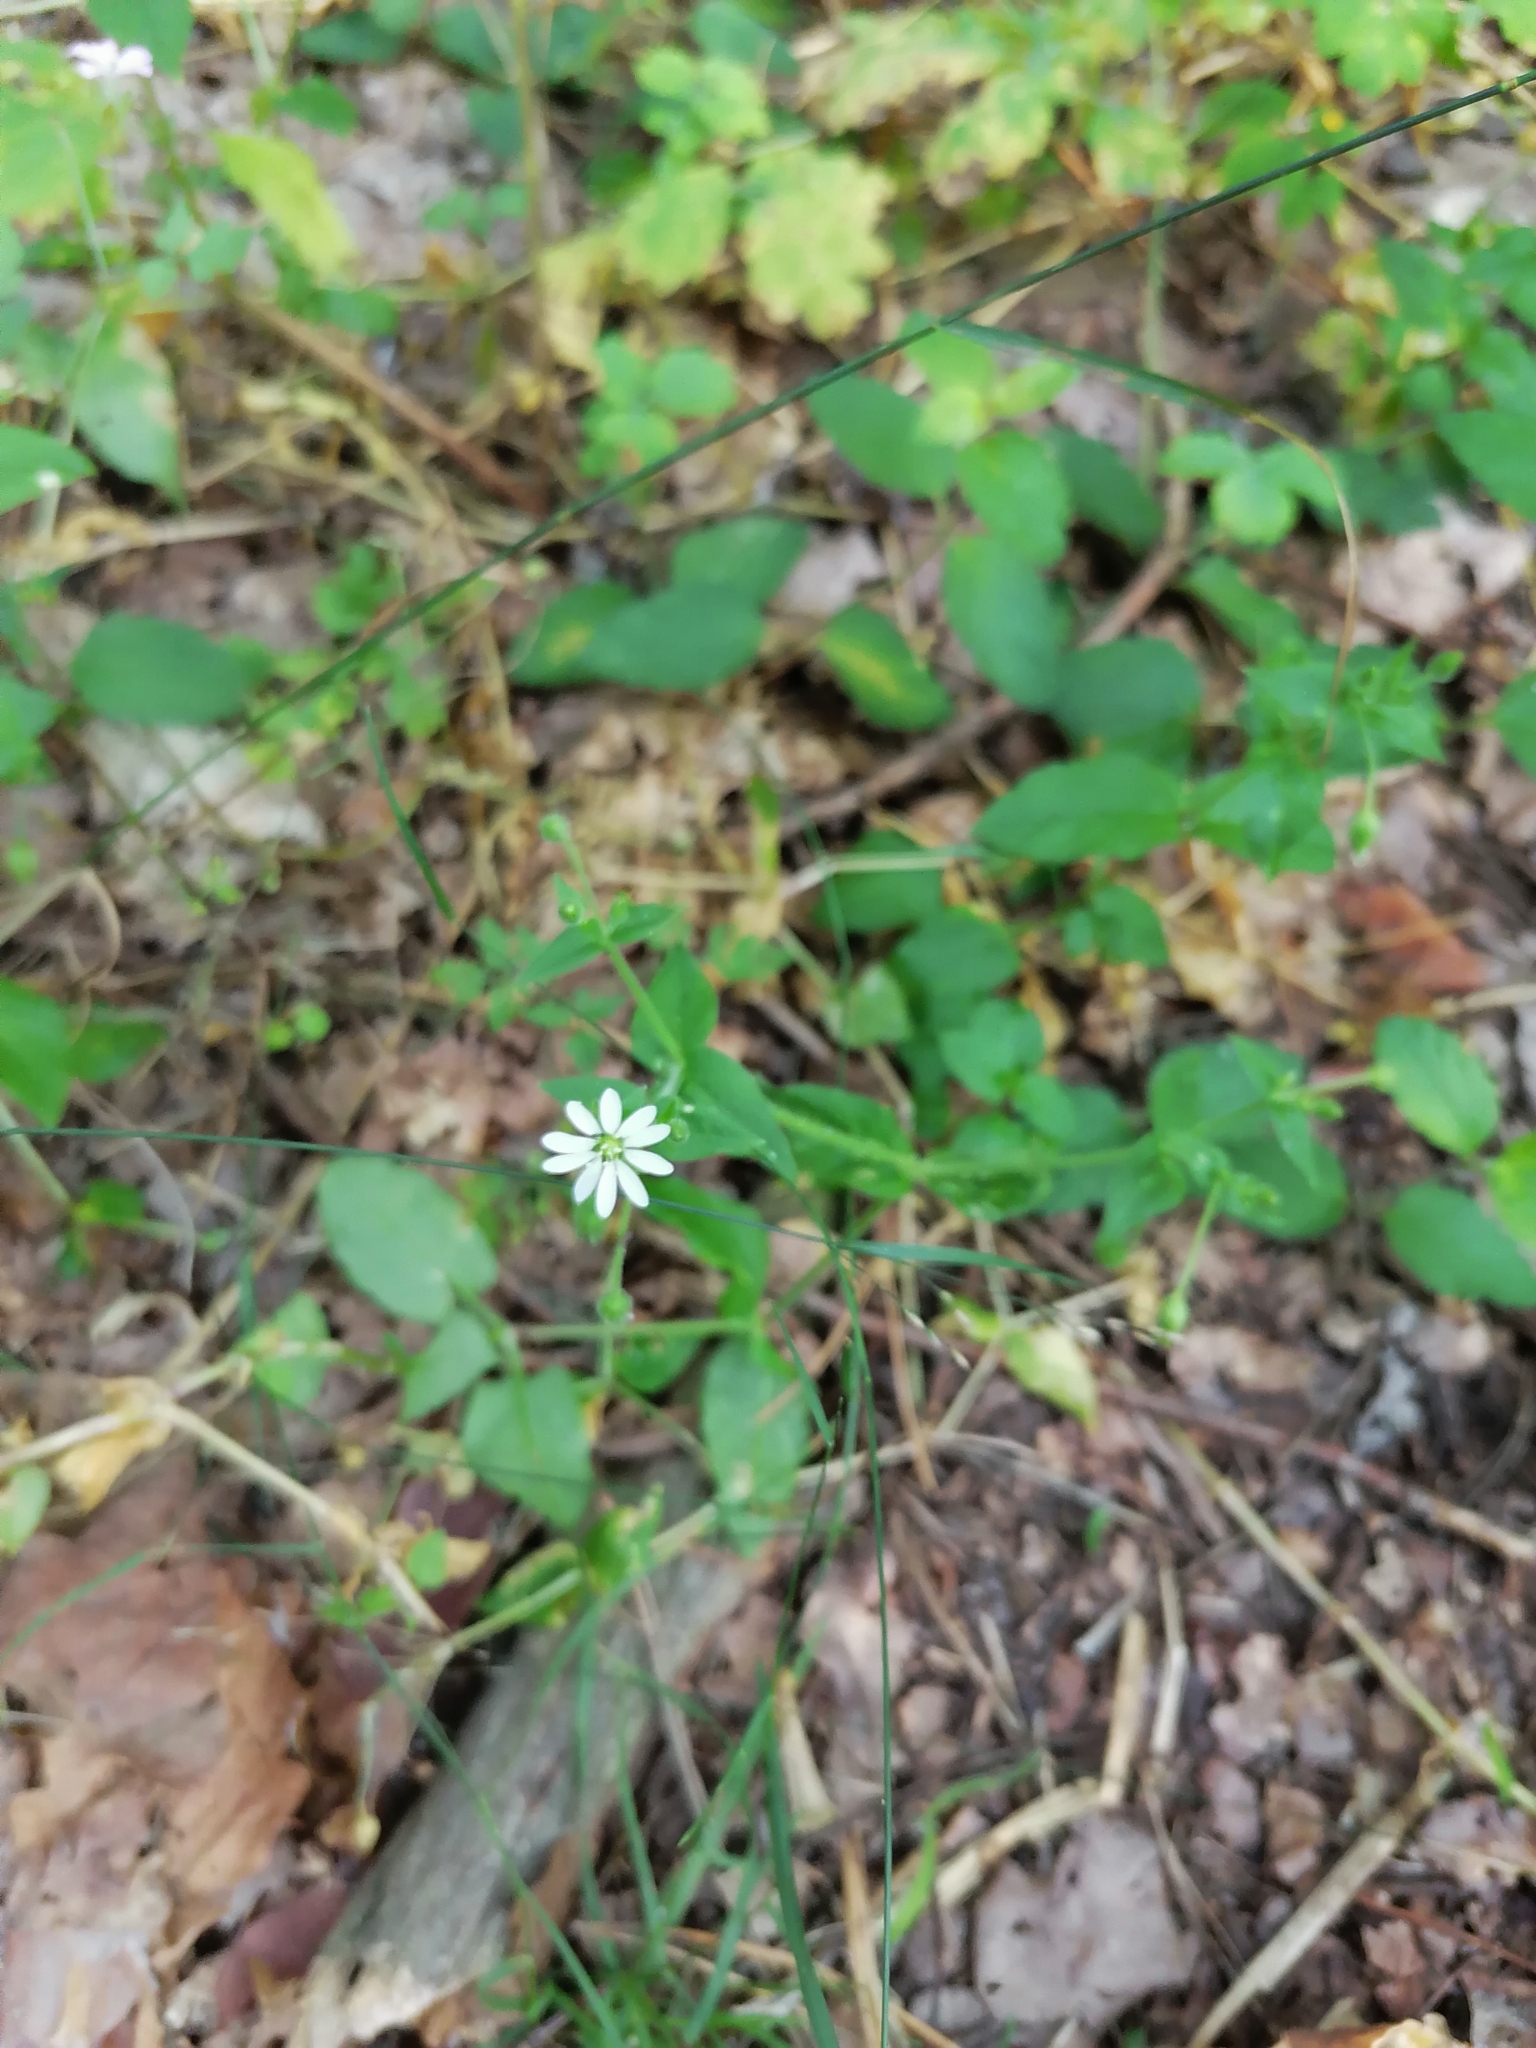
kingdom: Plantae
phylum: Tracheophyta
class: Magnoliopsida
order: Caryophyllales
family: Caryophyllaceae
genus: Stellaria
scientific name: Stellaria aquatica
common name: Water chickweed
